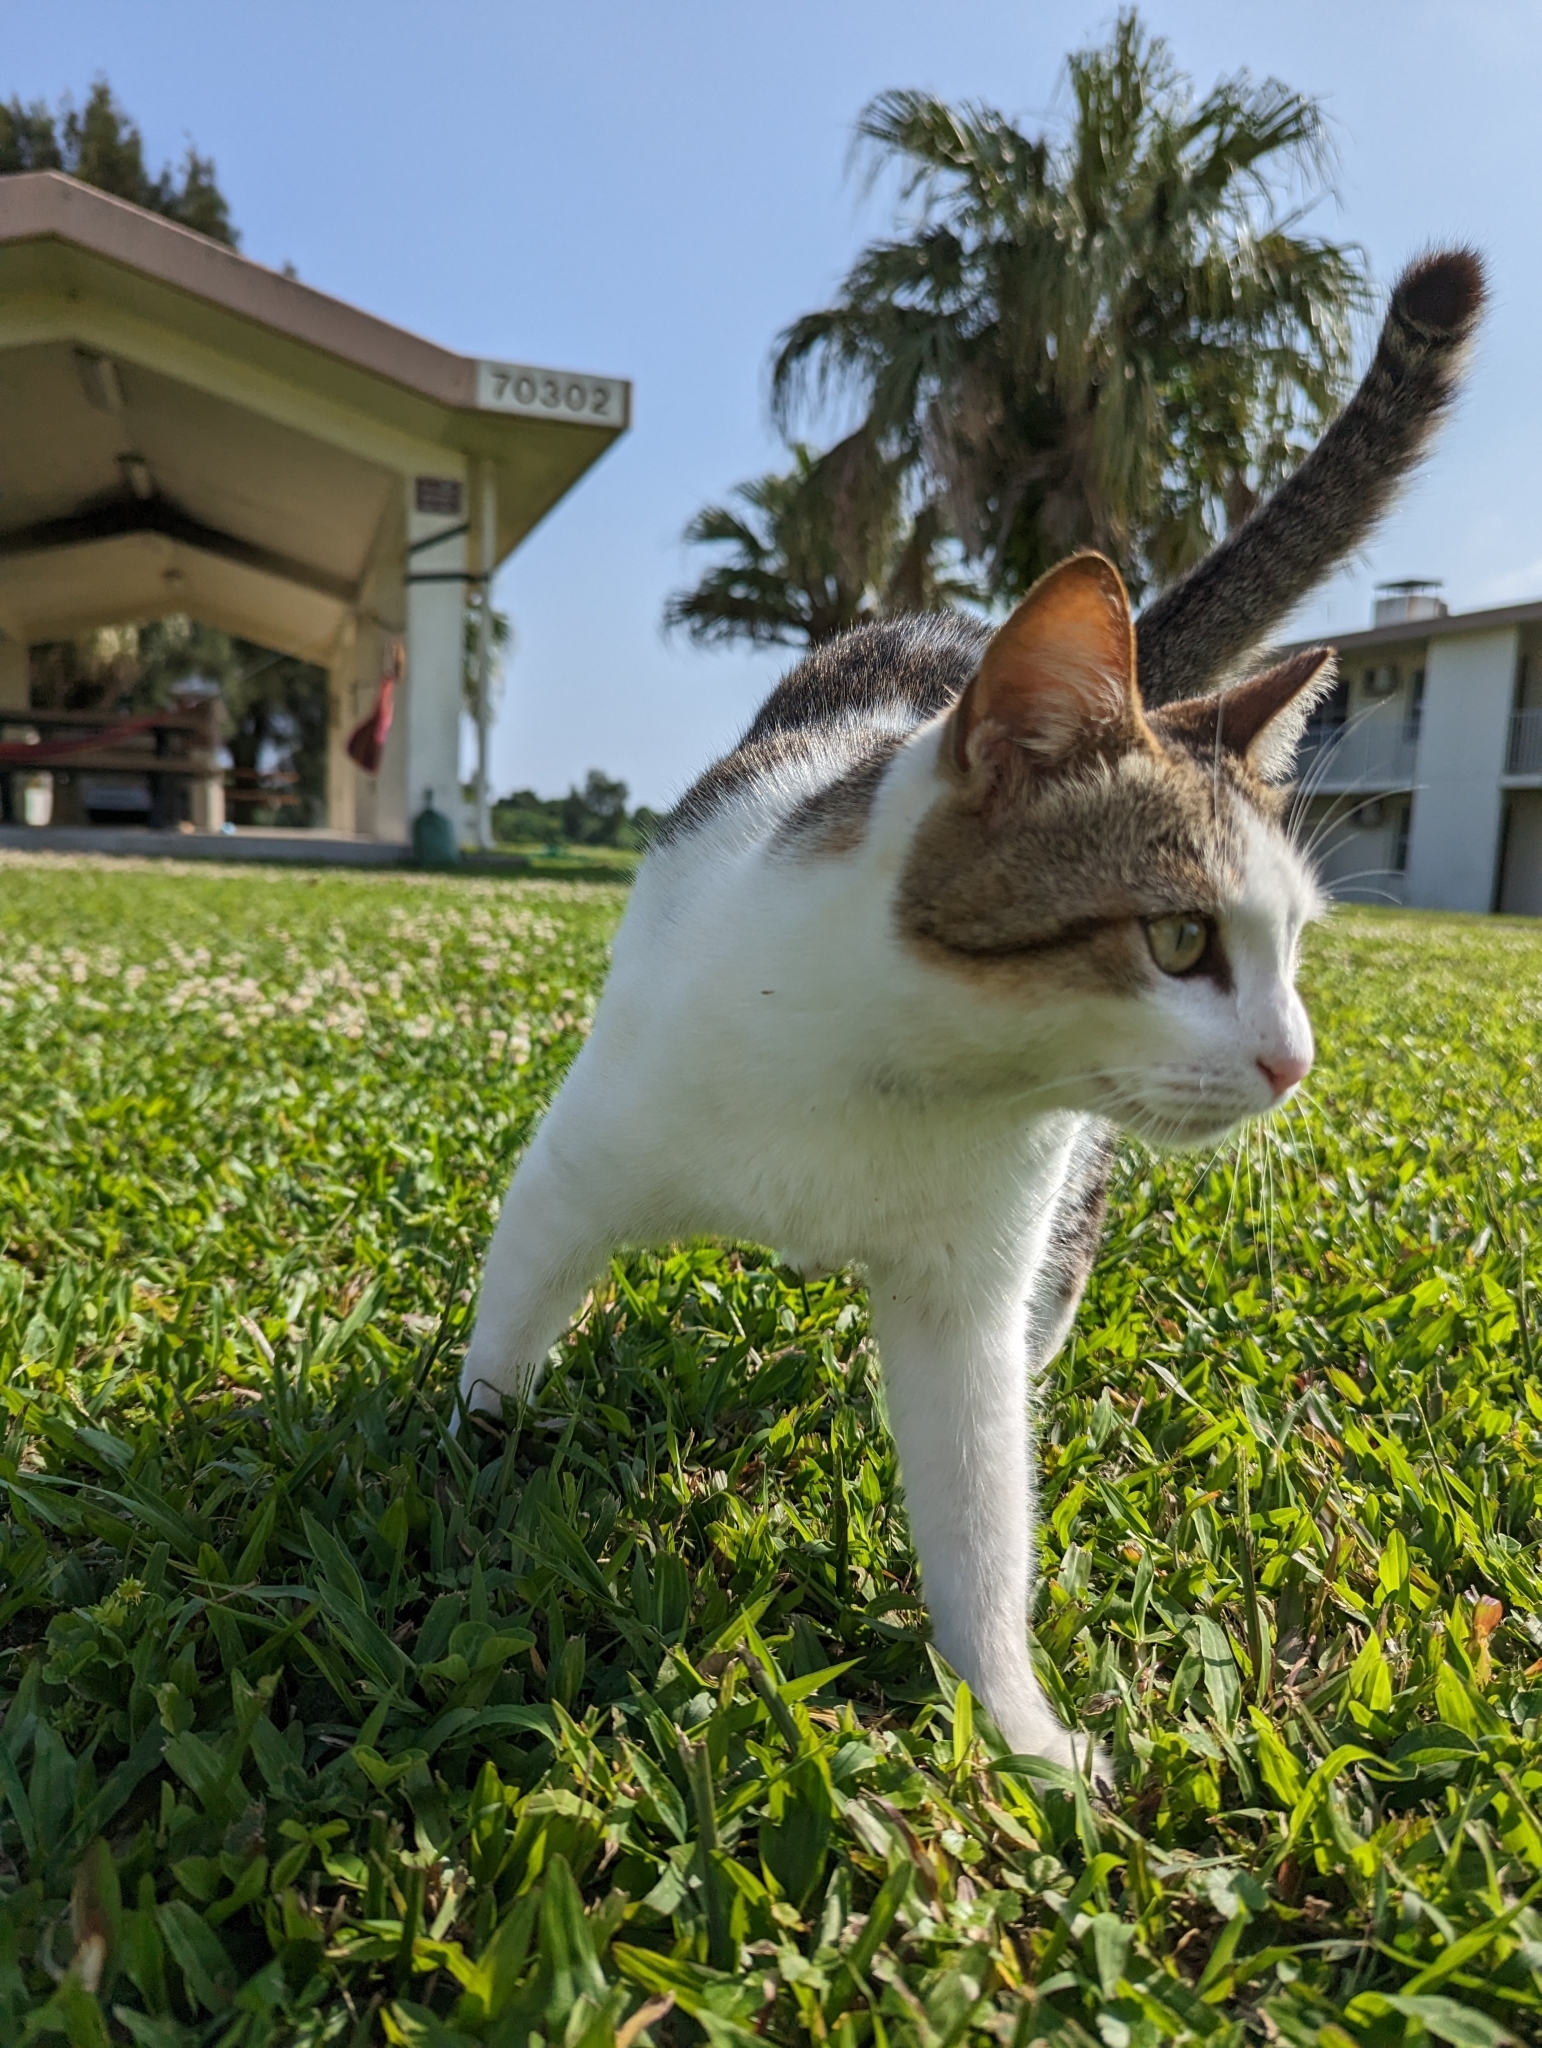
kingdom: Animalia
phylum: Chordata
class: Mammalia
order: Carnivora
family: Felidae
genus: Felis
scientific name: Felis catus
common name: Domestic cat
